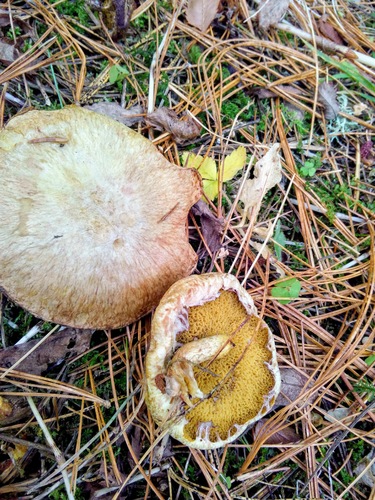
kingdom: Fungi
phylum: Basidiomycota
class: Agaricomycetes
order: Boletales
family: Suillaceae
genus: Suillus
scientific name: Suillus americanus
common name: Chicken fat mushroom
